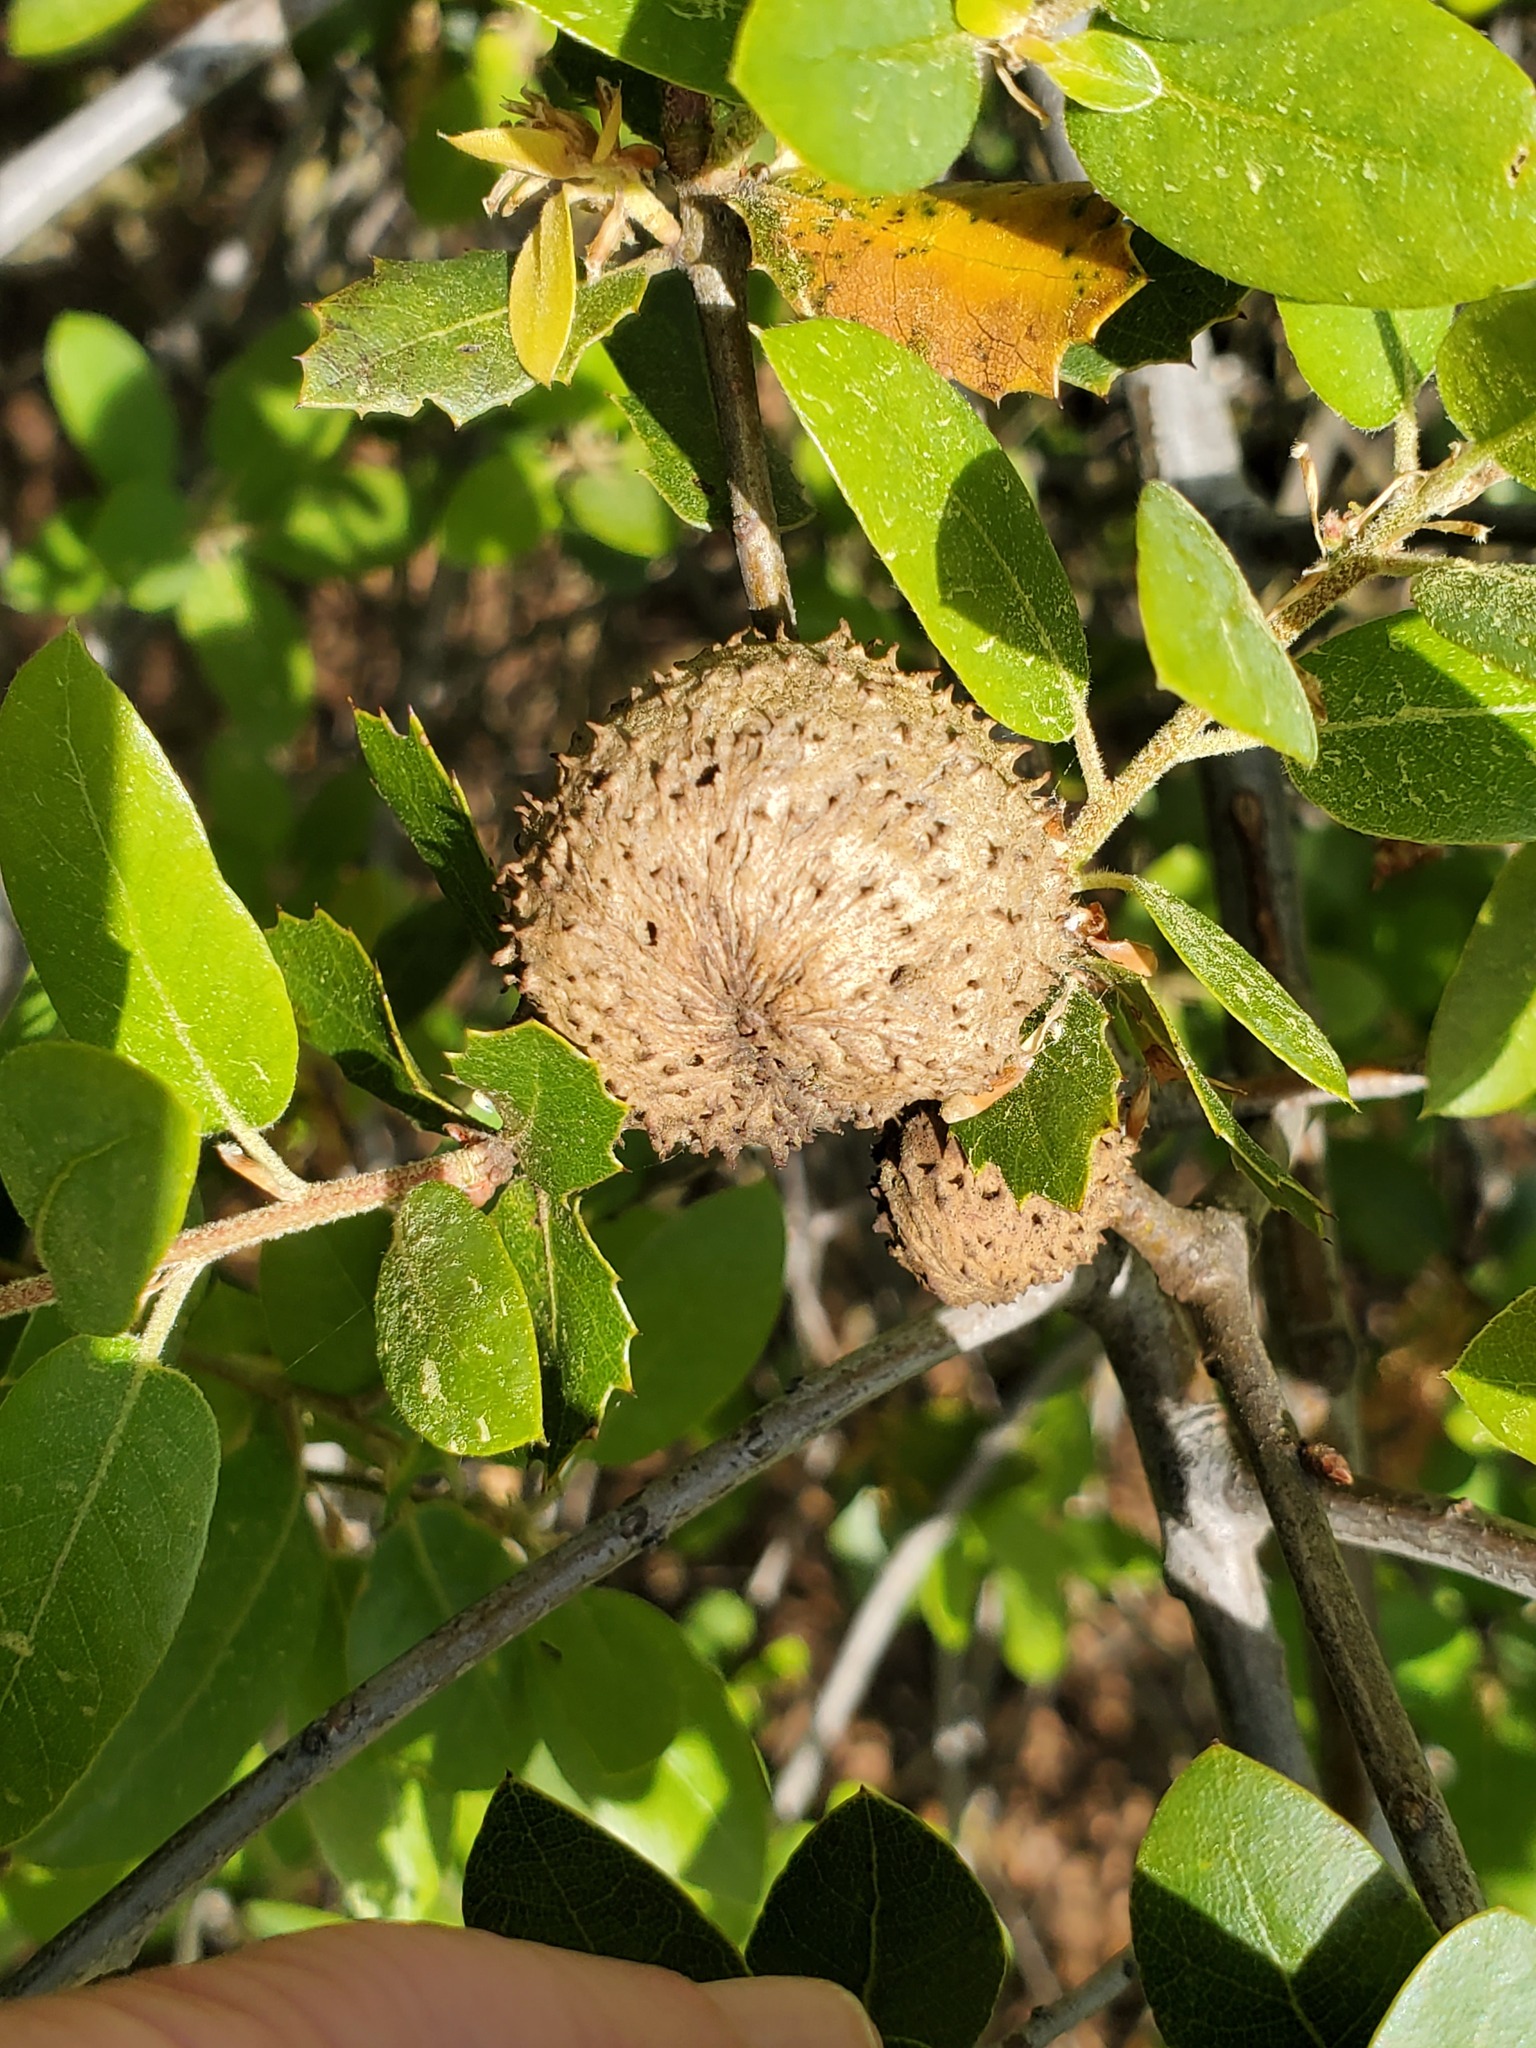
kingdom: Animalia
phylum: Arthropoda
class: Insecta
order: Hymenoptera
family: Cynipidae
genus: Amphibolips
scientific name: Amphibolips quercuspomiformis
